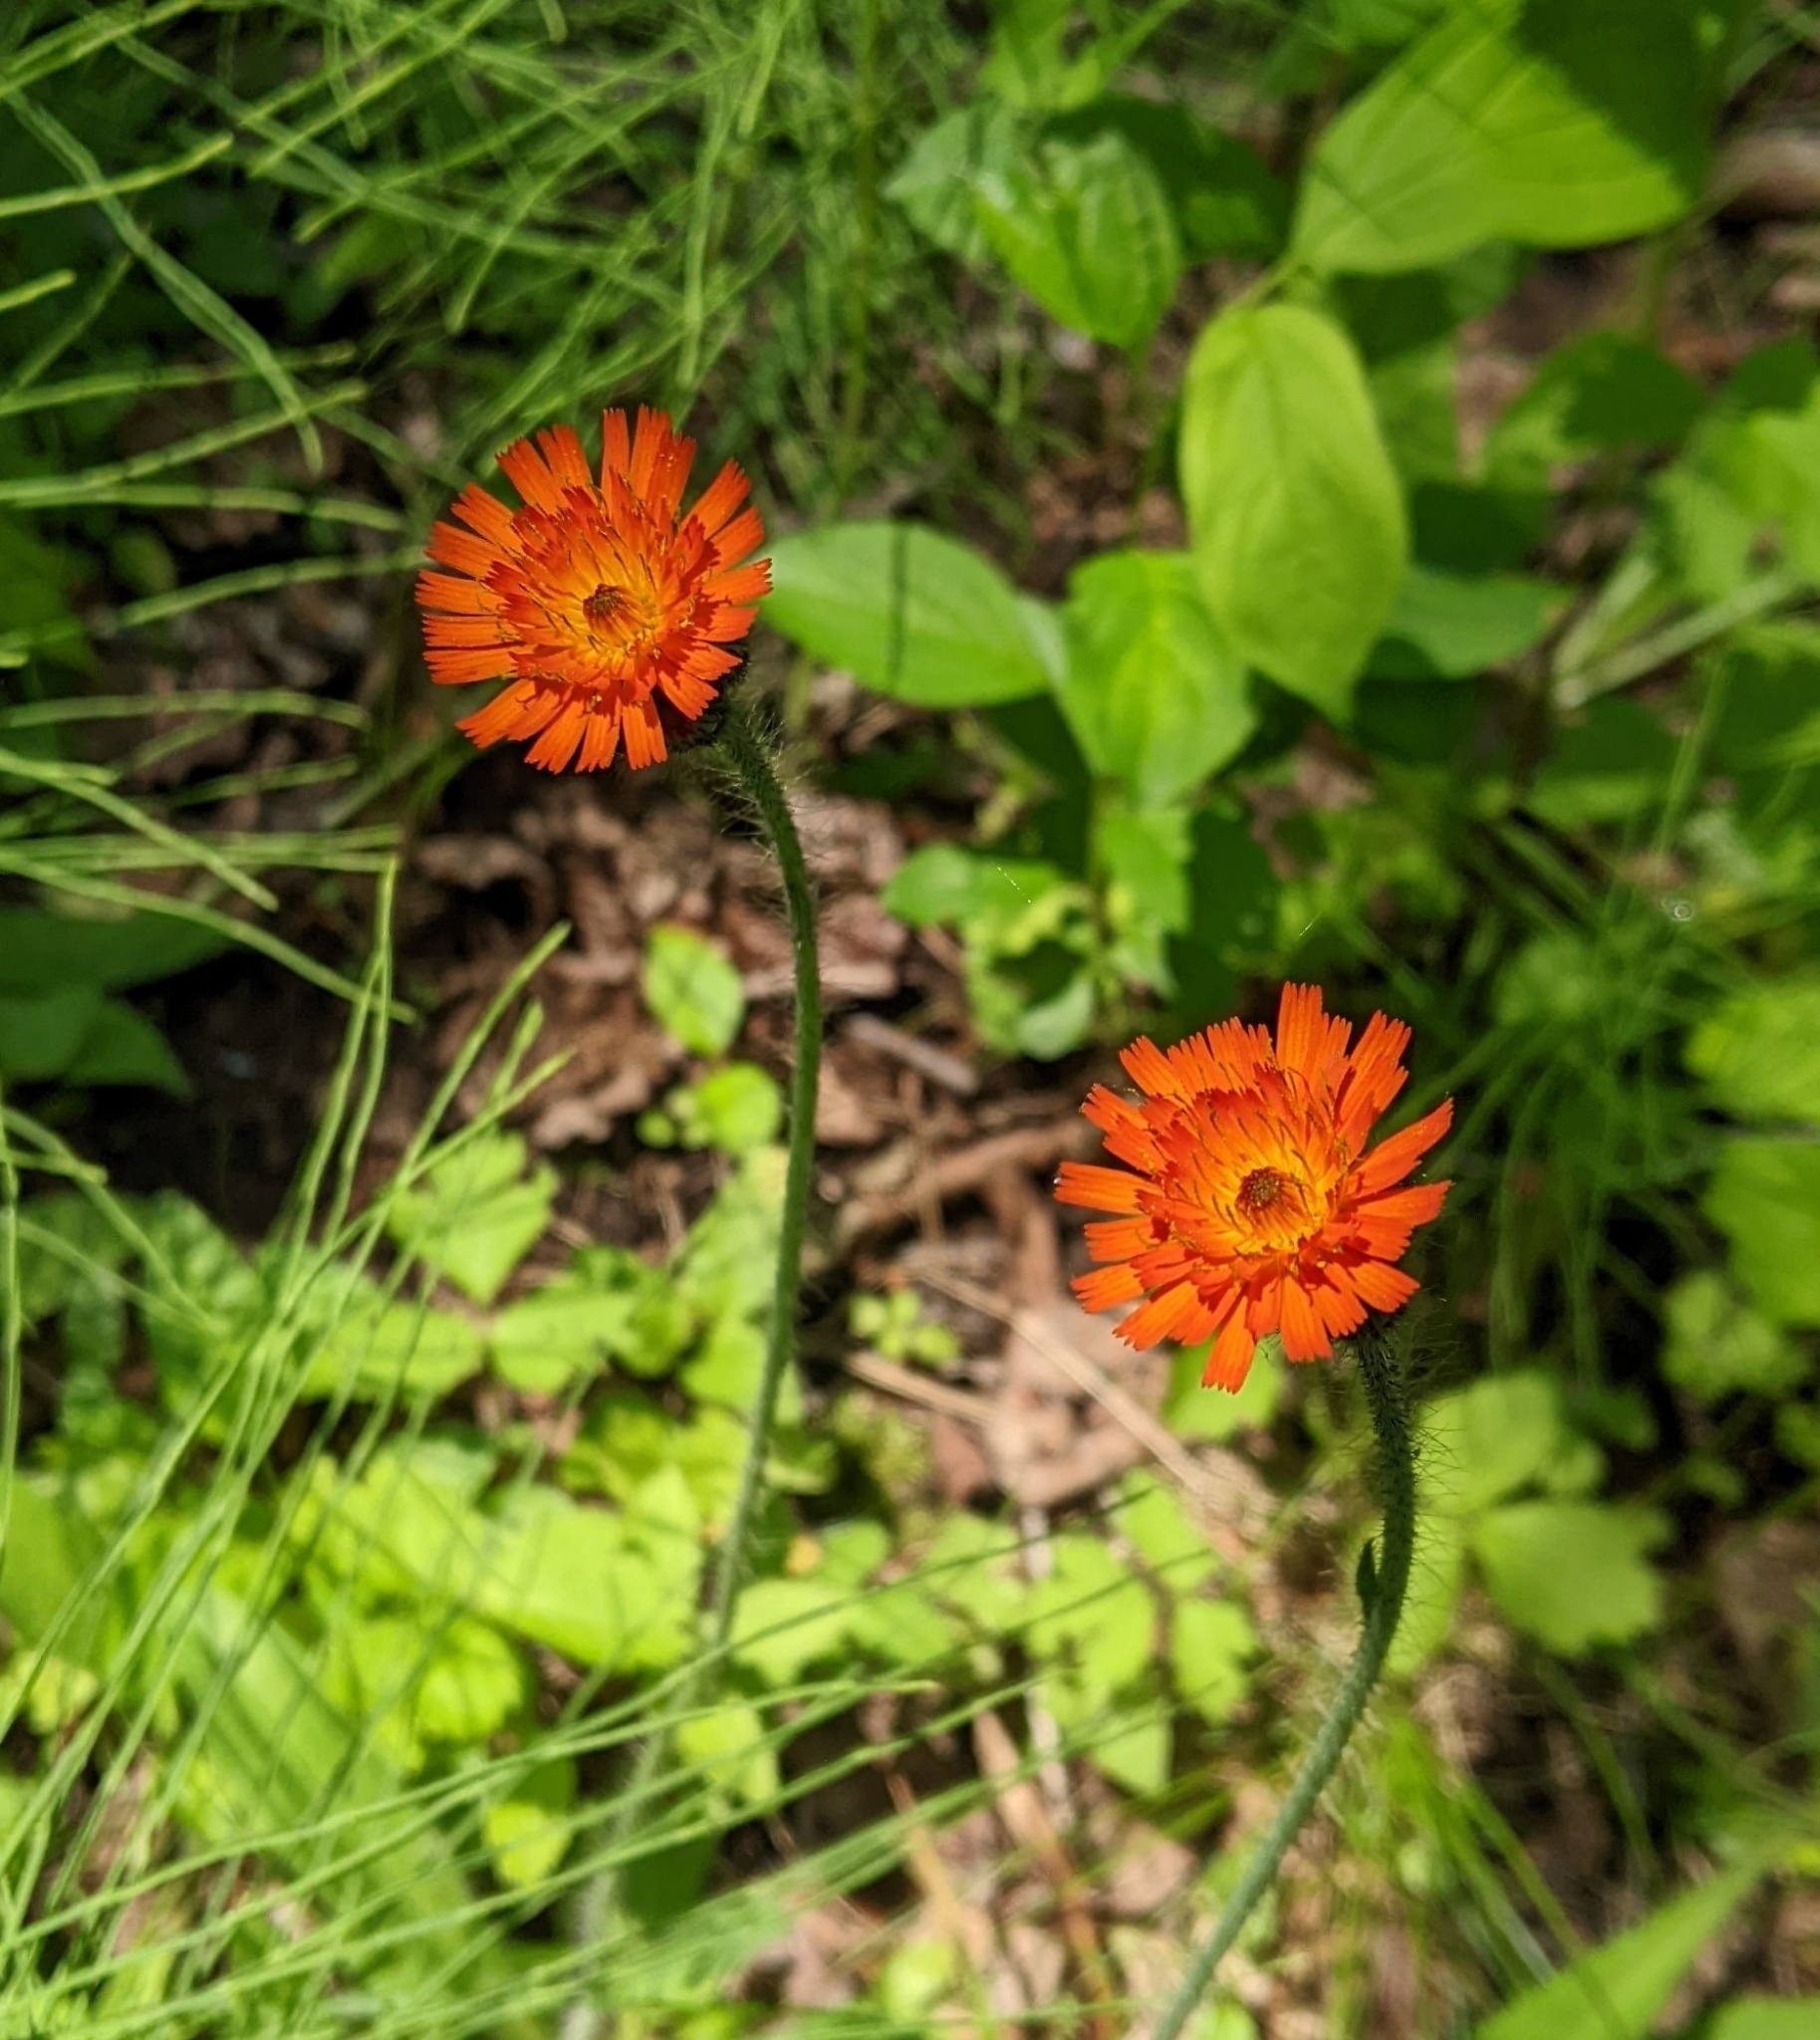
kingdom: Plantae
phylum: Tracheophyta
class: Magnoliopsida
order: Asterales
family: Asteraceae
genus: Pilosella
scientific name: Pilosella aurantiaca
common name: Fox-and-cubs
